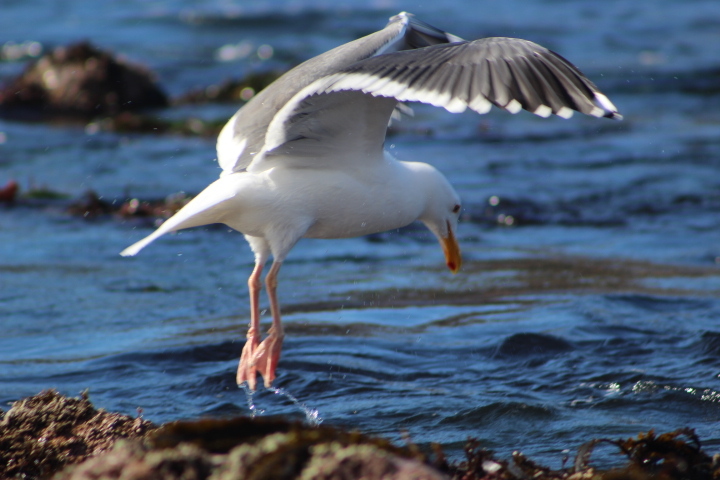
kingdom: Animalia
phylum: Chordata
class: Aves
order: Charadriiformes
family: Laridae
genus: Larus
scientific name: Larus occidentalis
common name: Western gull
